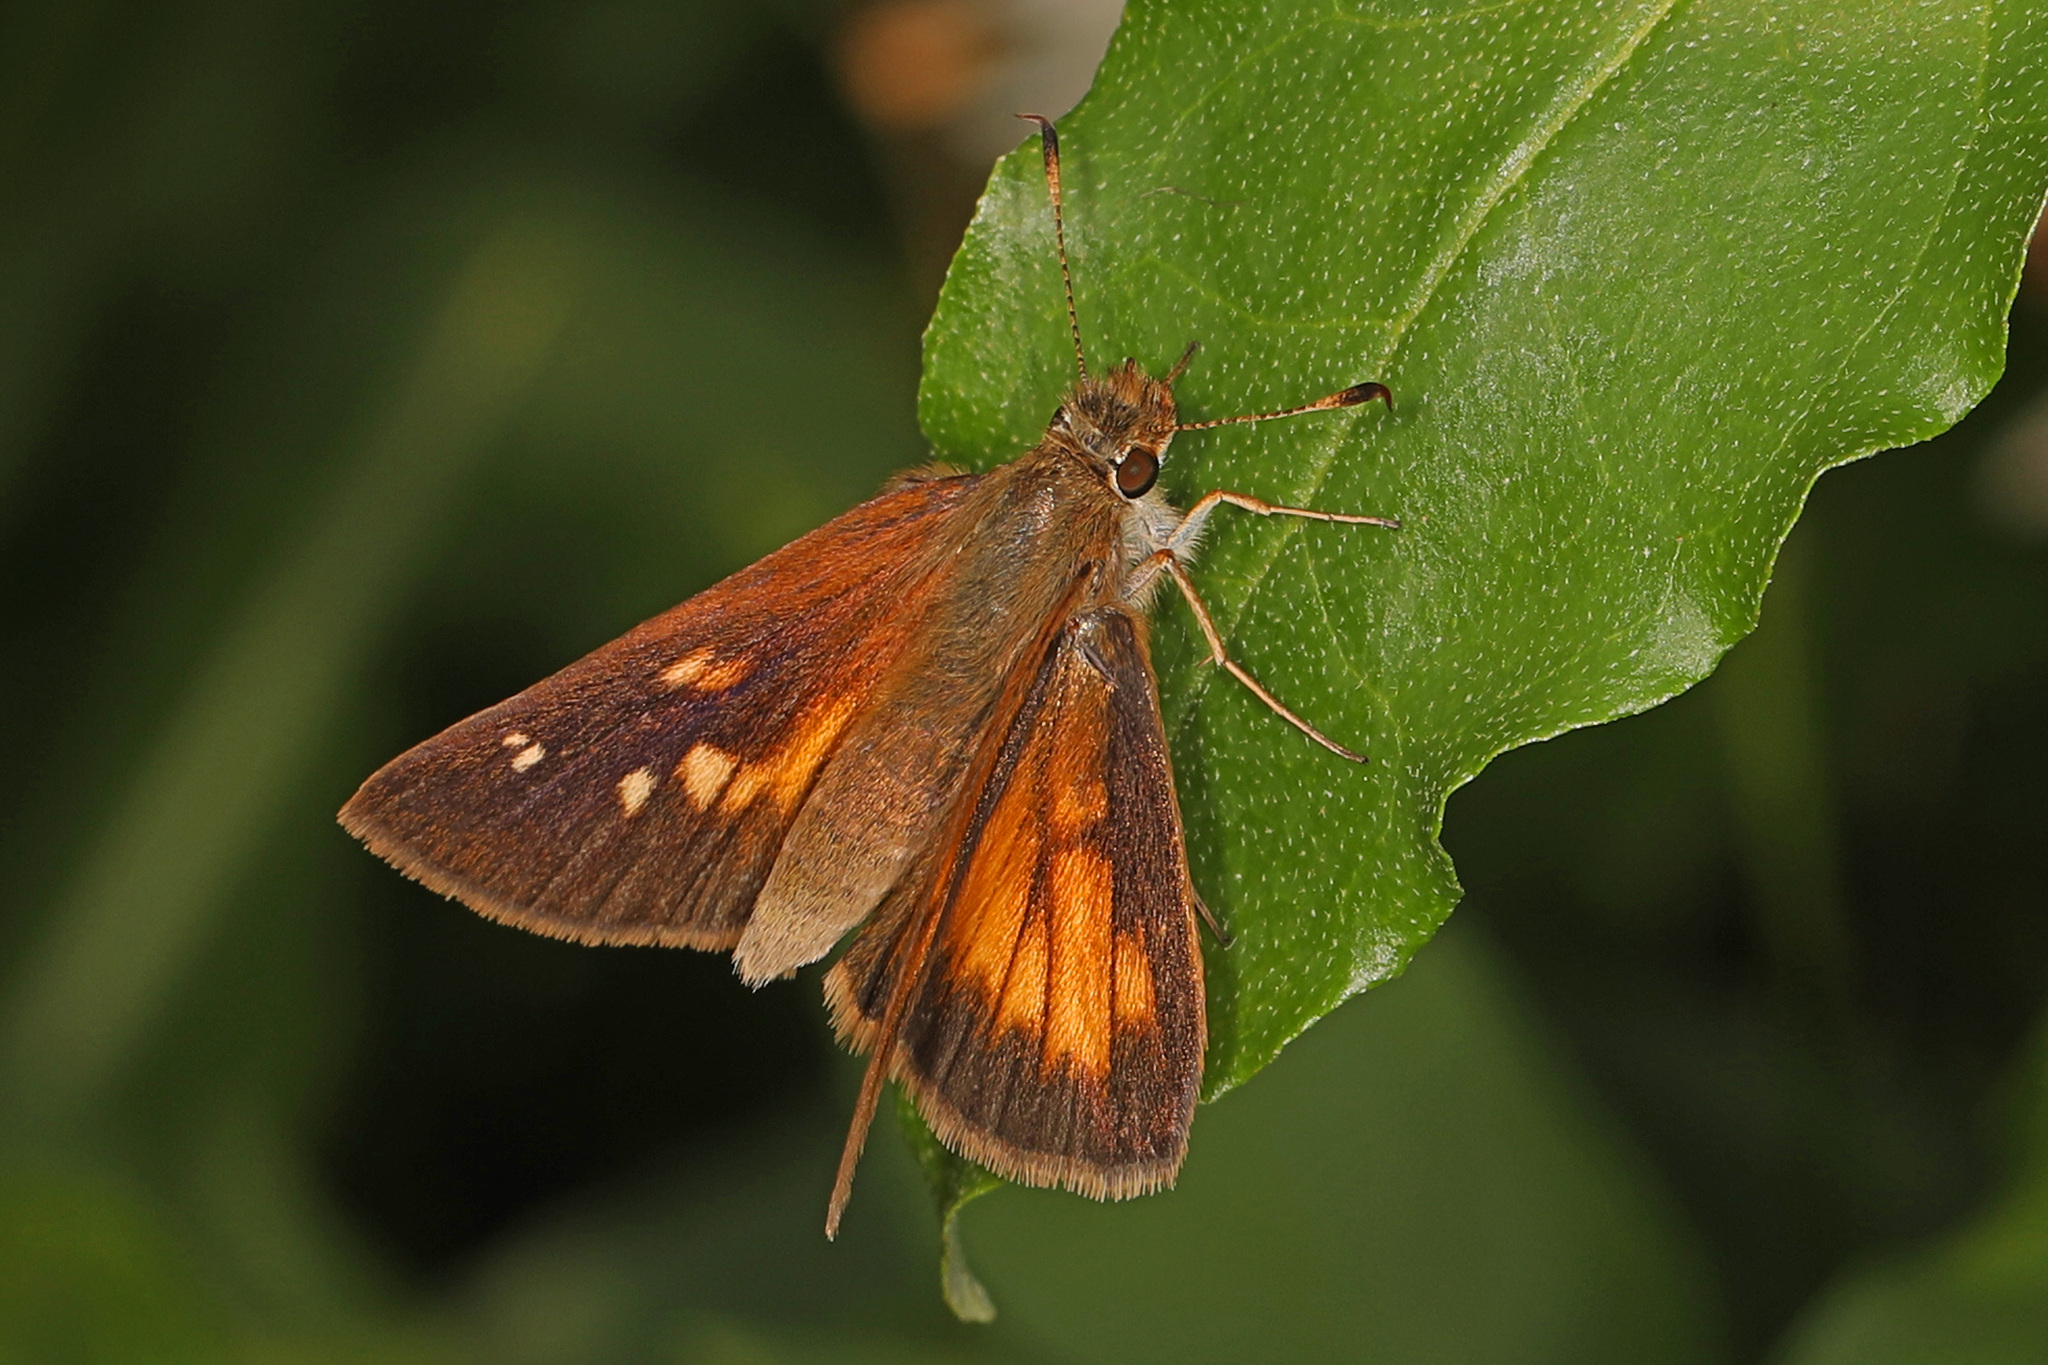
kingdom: Animalia
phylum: Arthropoda
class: Insecta
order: Lepidoptera
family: Hesperiidae
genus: Poanes
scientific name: Poanes viator
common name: Broad-winged skipper
